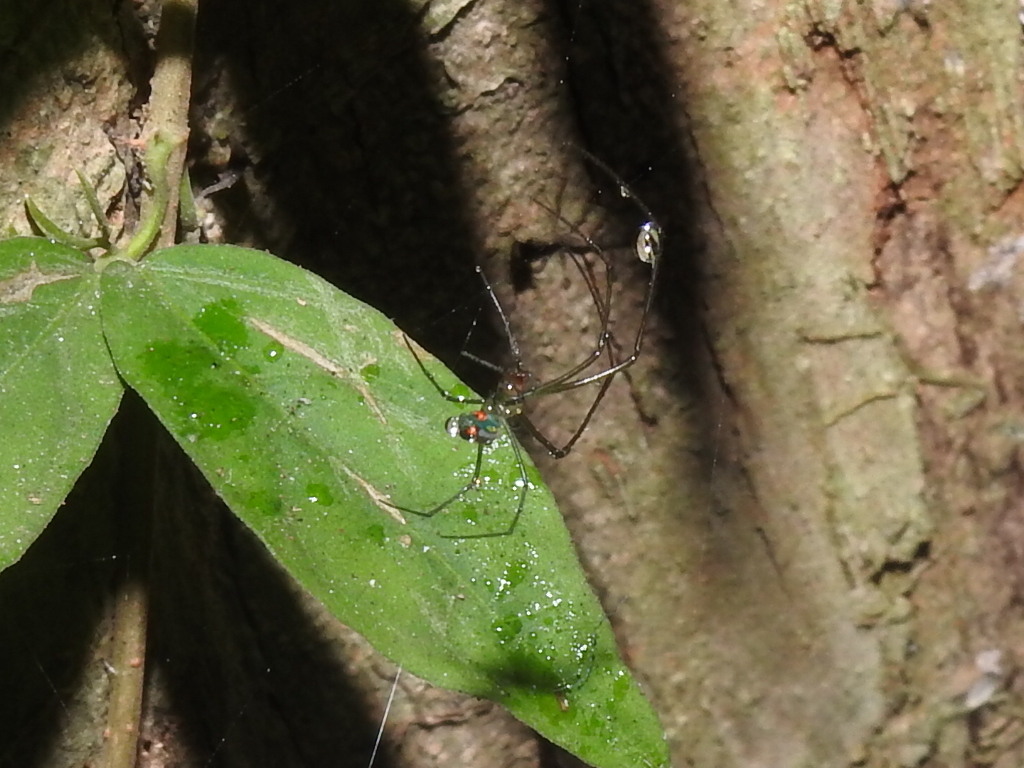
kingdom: Animalia
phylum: Arthropoda
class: Arachnida
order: Araneae
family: Tetragnathidae
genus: Leucauge
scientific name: Leucauge argyrobapta
